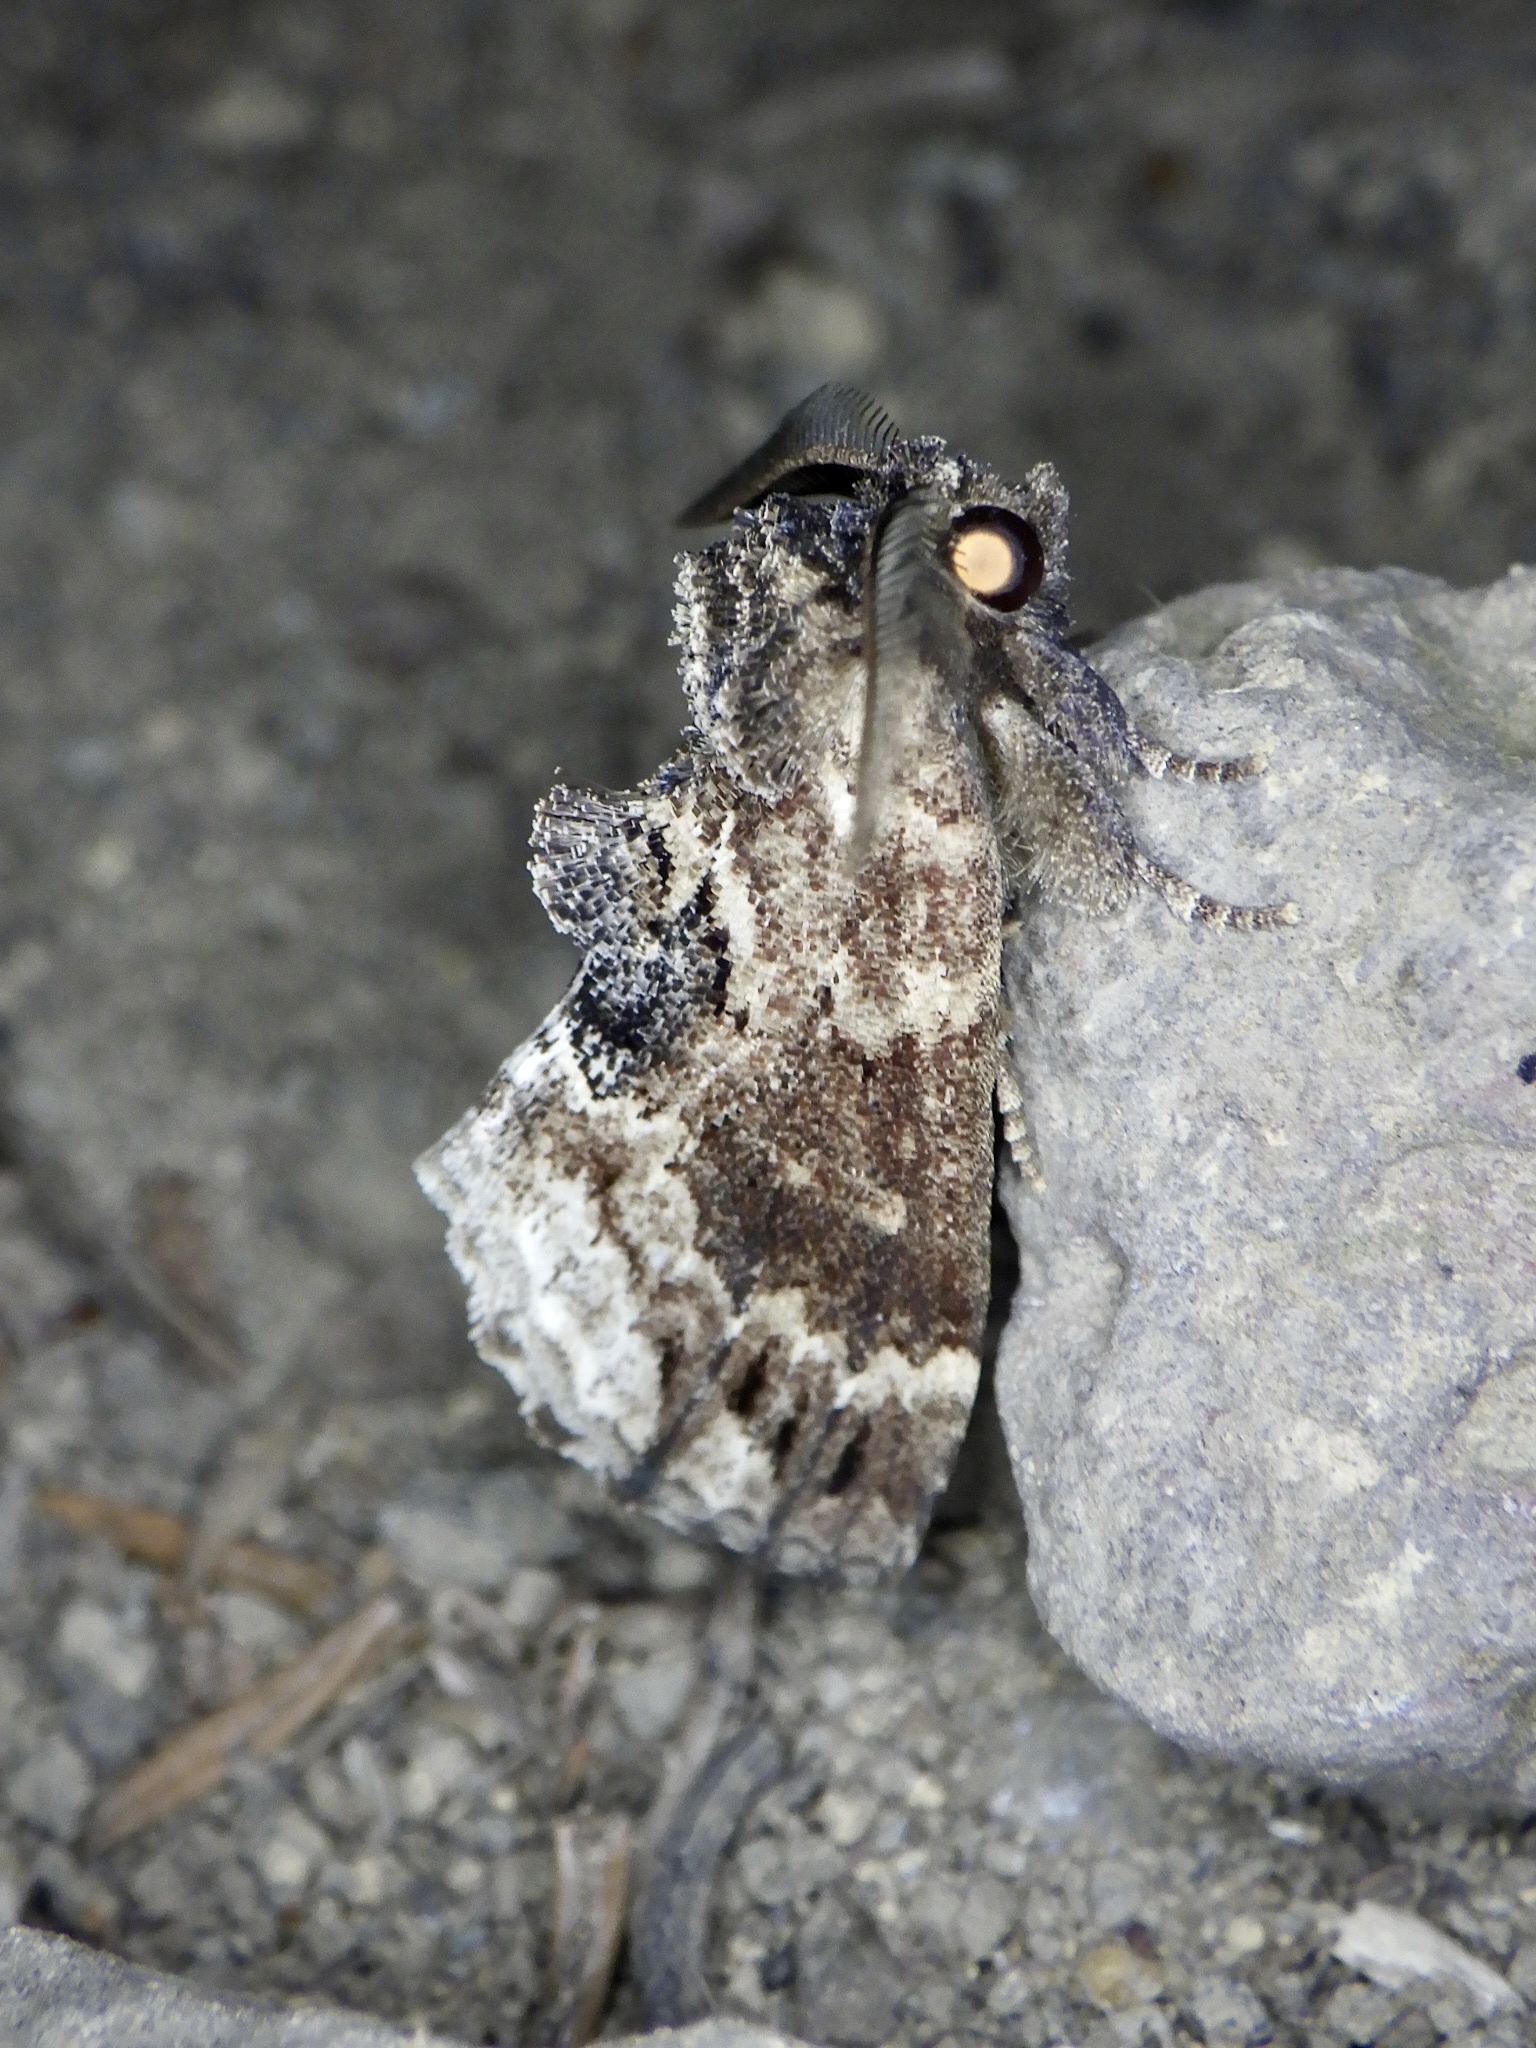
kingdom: Animalia
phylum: Arthropoda
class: Insecta
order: Lepidoptera
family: Notodontidae
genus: Lophontosia
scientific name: Lophontosia
